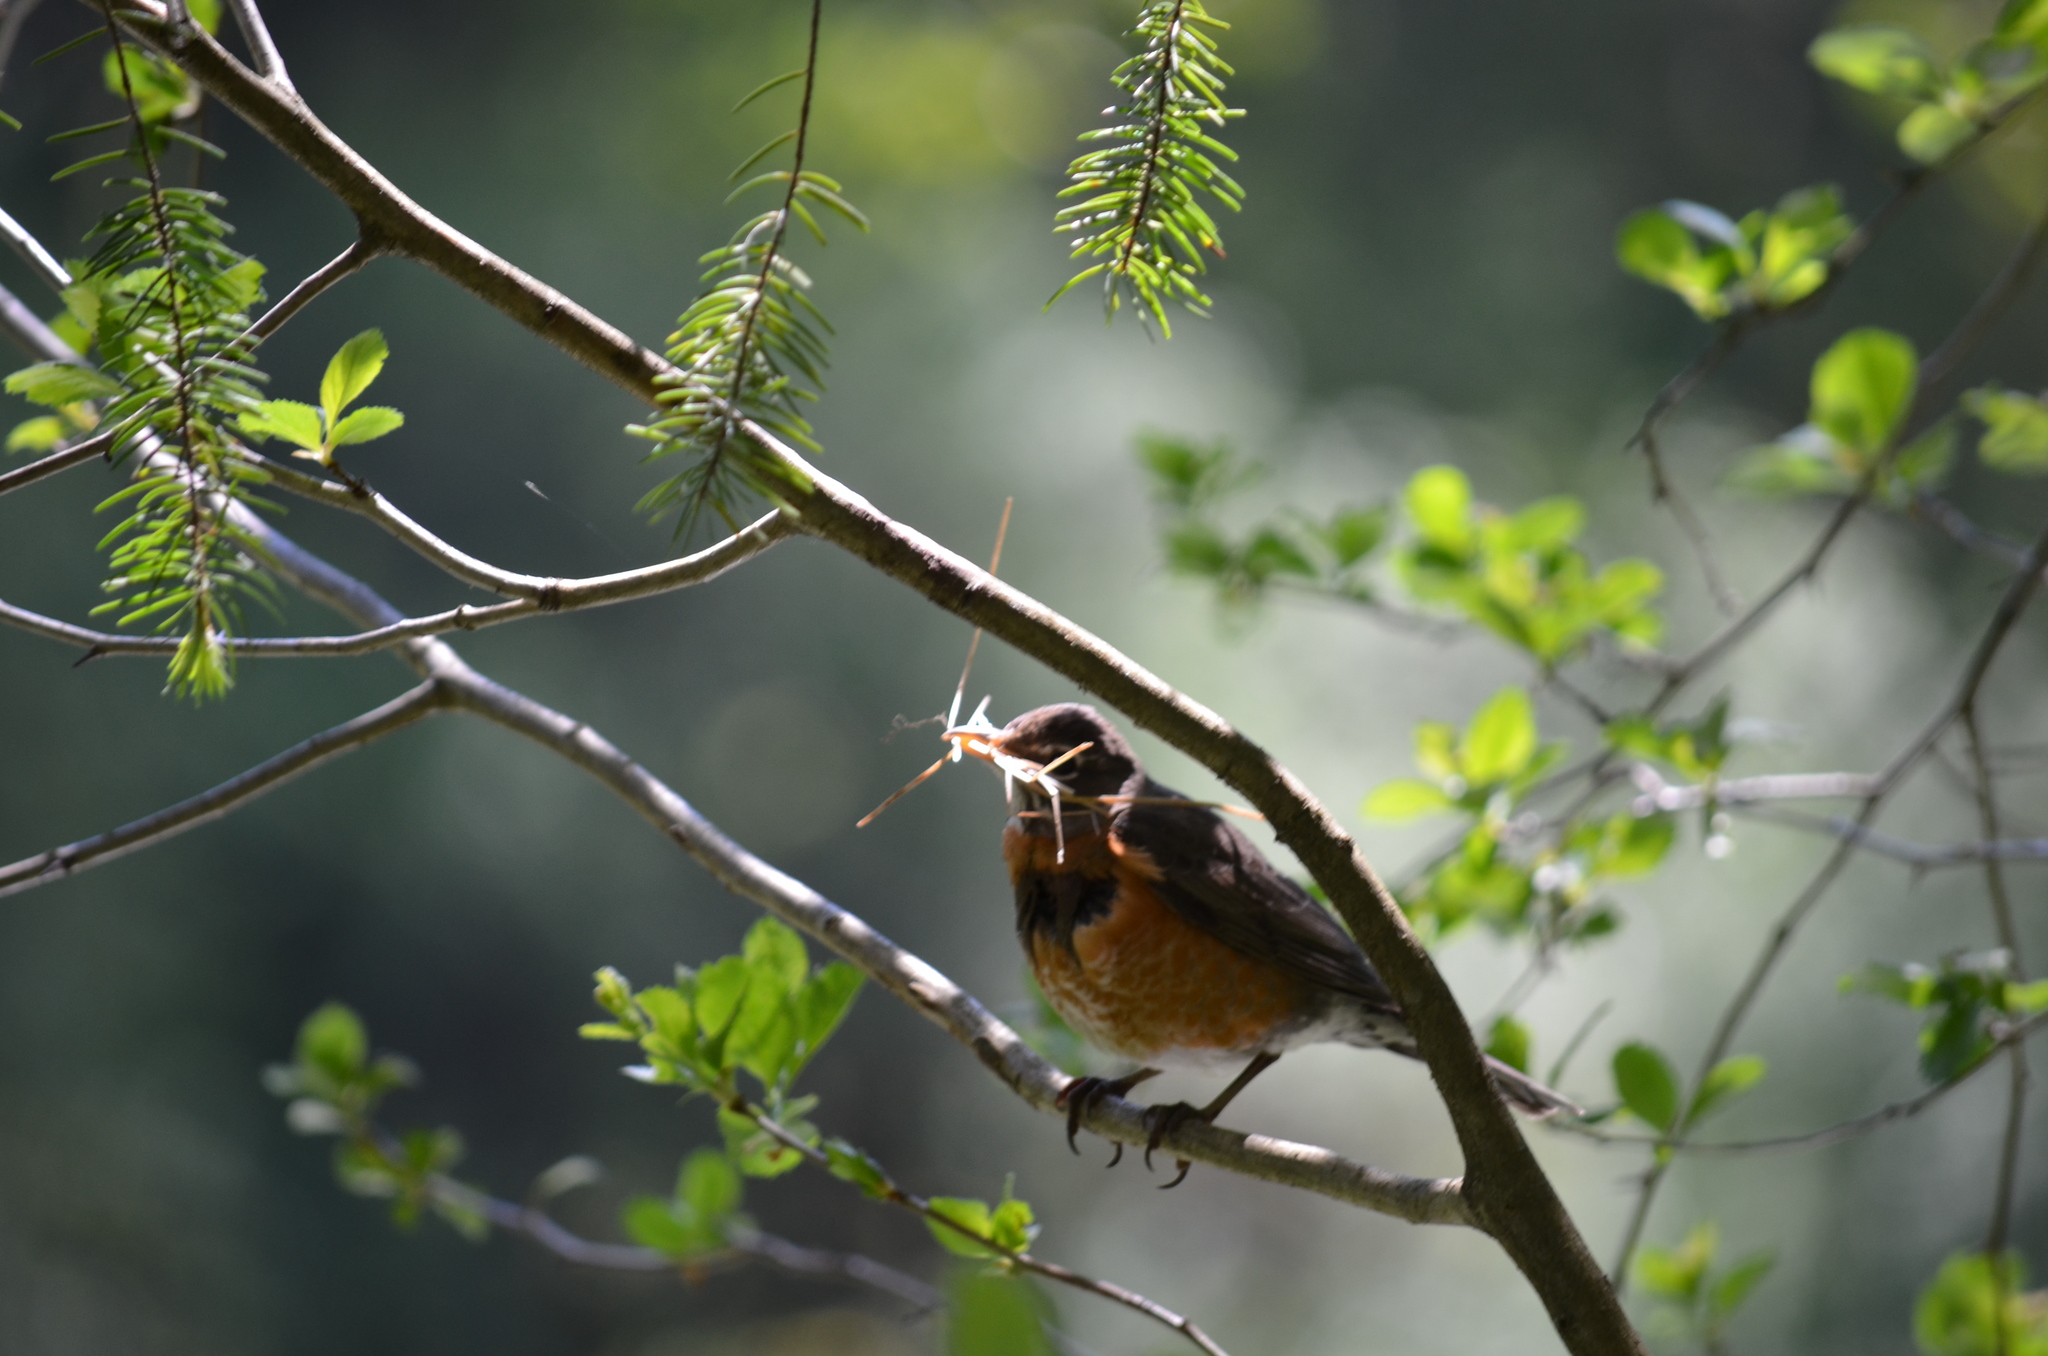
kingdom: Animalia
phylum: Chordata
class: Aves
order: Passeriformes
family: Turdidae
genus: Turdus
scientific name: Turdus migratorius
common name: American robin
